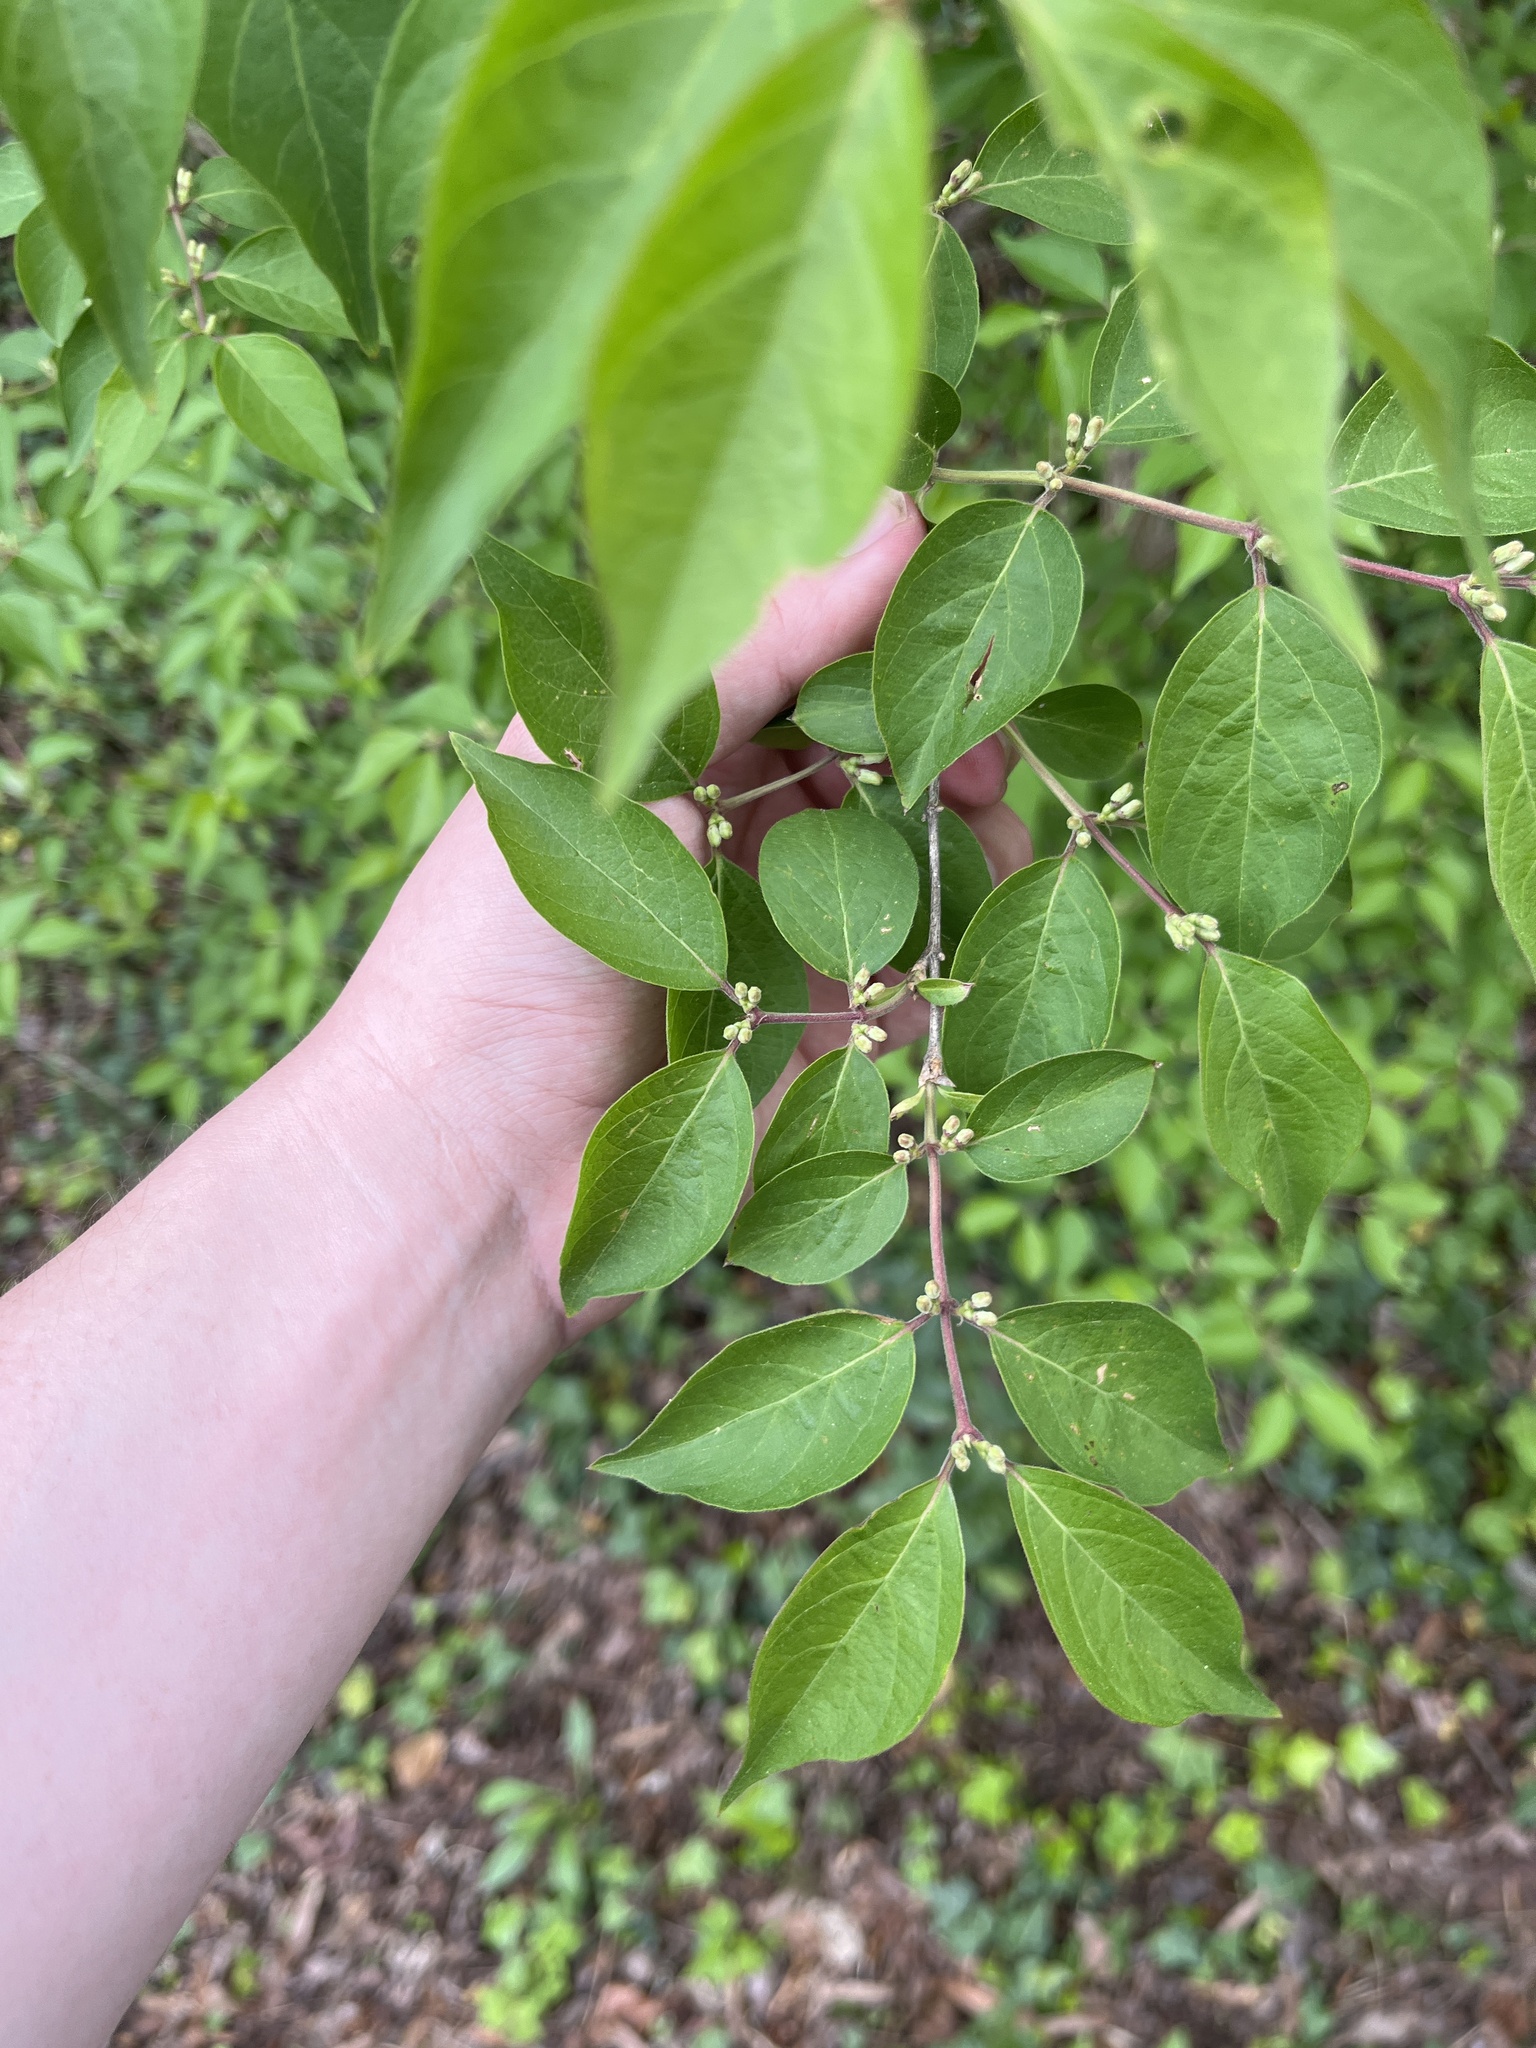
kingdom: Plantae
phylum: Tracheophyta
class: Magnoliopsida
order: Dipsacales
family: Caprifoliaceae
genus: Lonicera
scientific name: Lonicera maackii
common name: Amur honeysuckle
